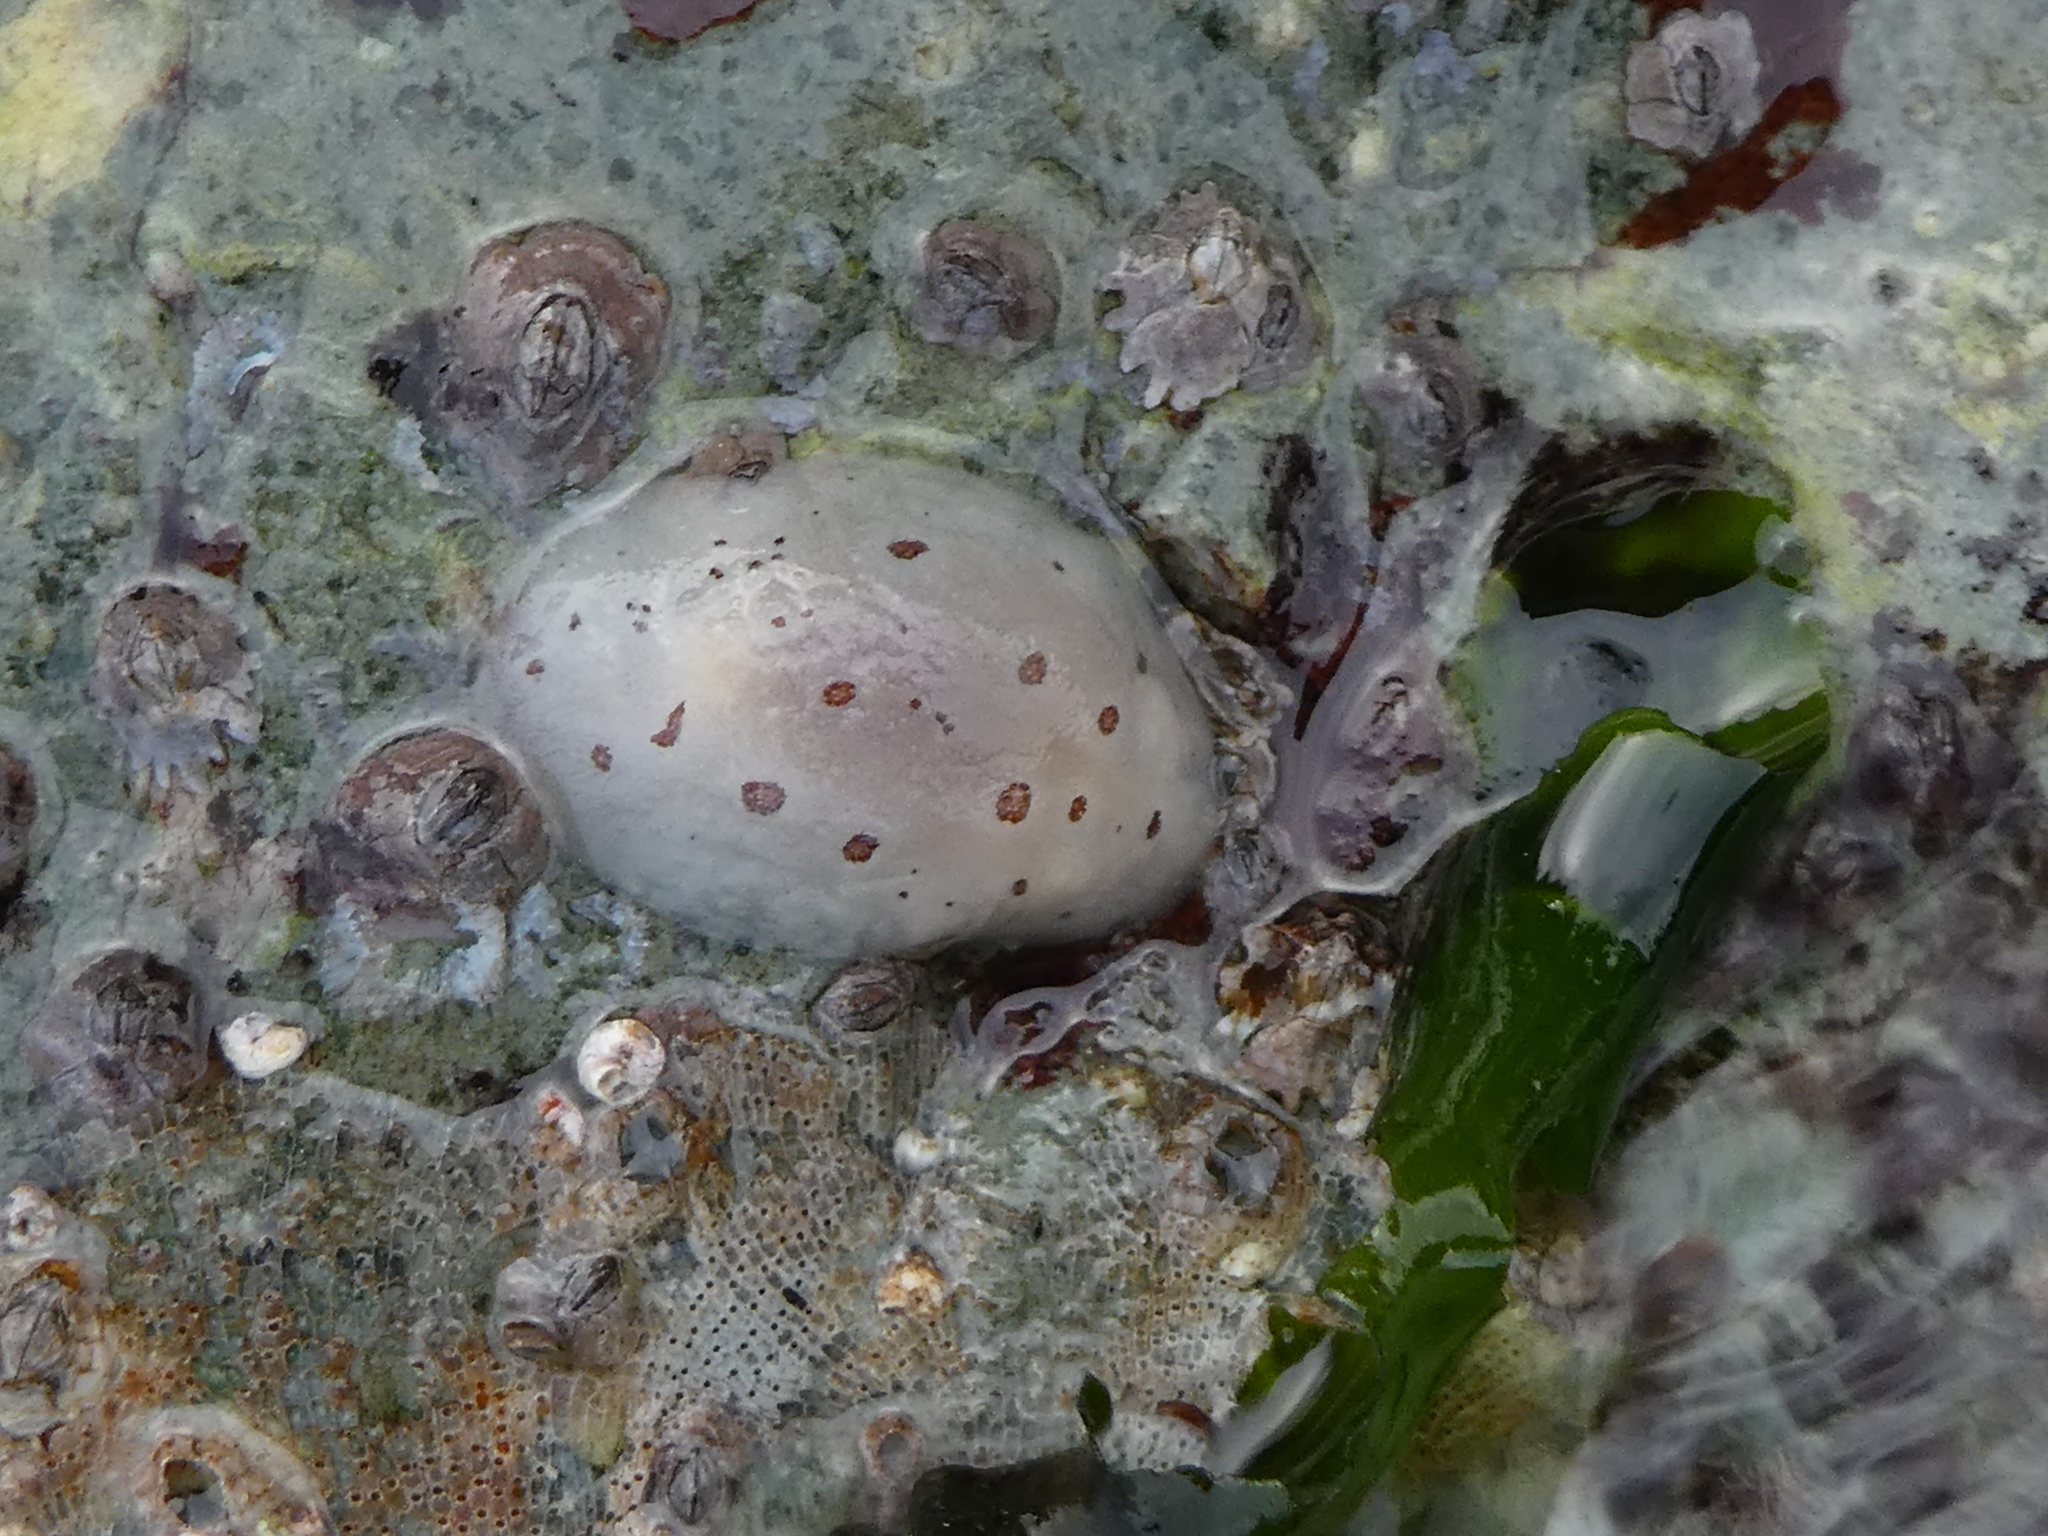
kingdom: Animalia
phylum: Mollusca
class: Gastropoda
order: Nudibranchia
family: Discodorididae
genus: Diaulula
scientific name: Diaulula odonoghuei
